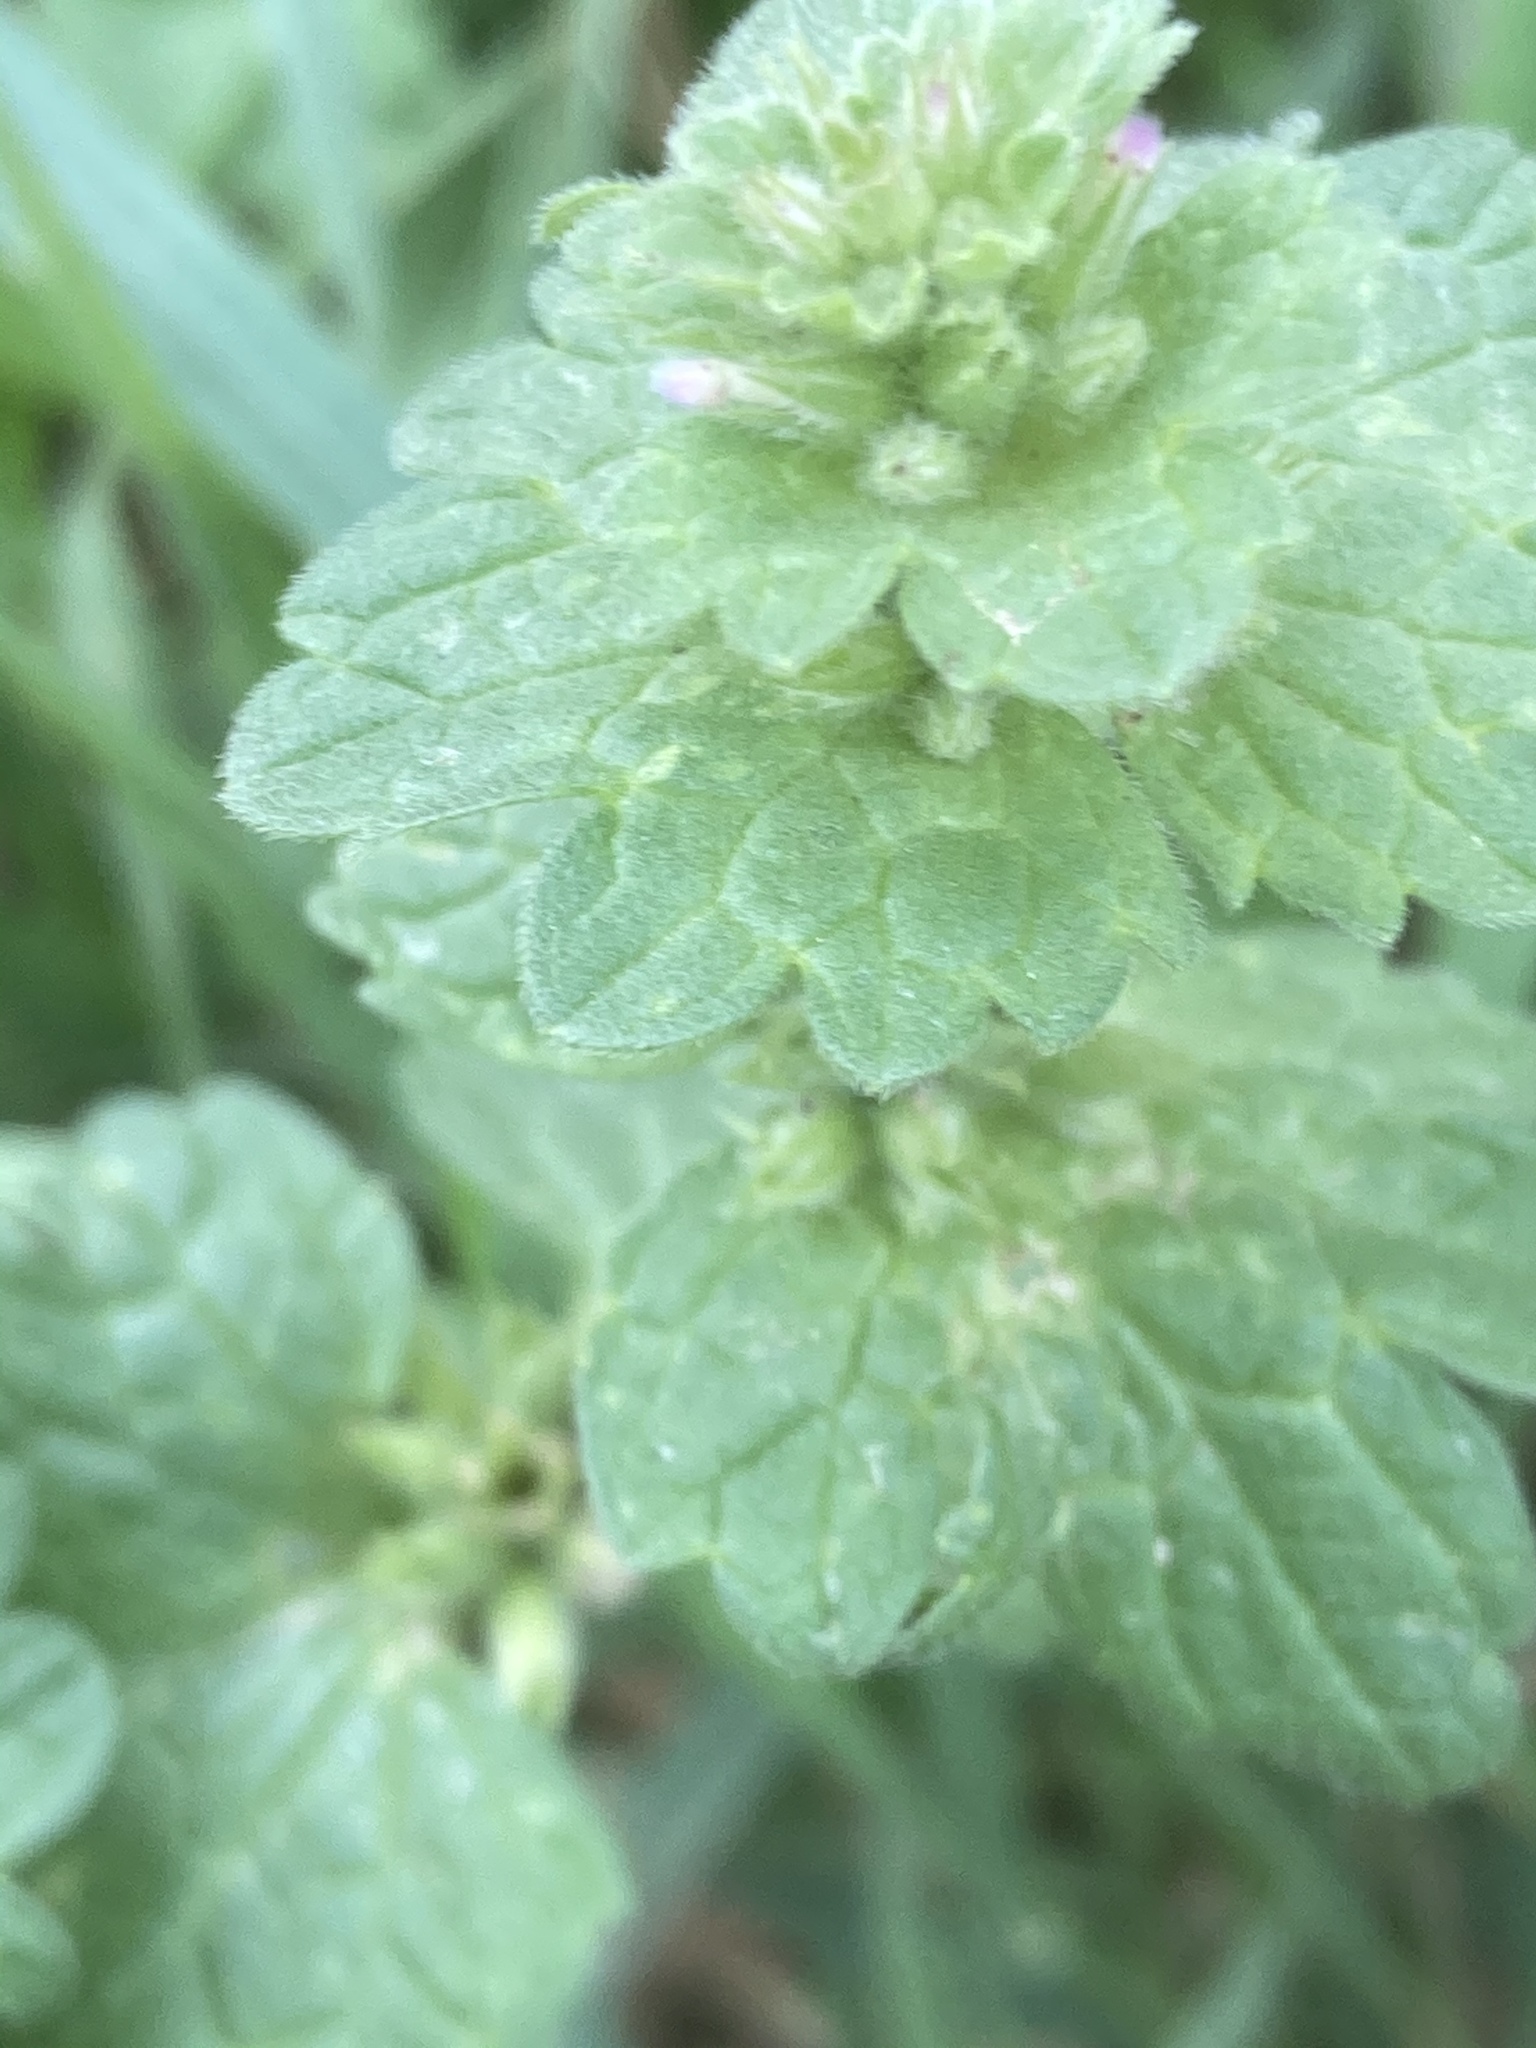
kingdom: Plantae
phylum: Tracheophyta
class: Magnoliopsida
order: Lamiales
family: Lamiaceae
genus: Lamium
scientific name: Lamium amplexicaule
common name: Henbit dead-nettle
